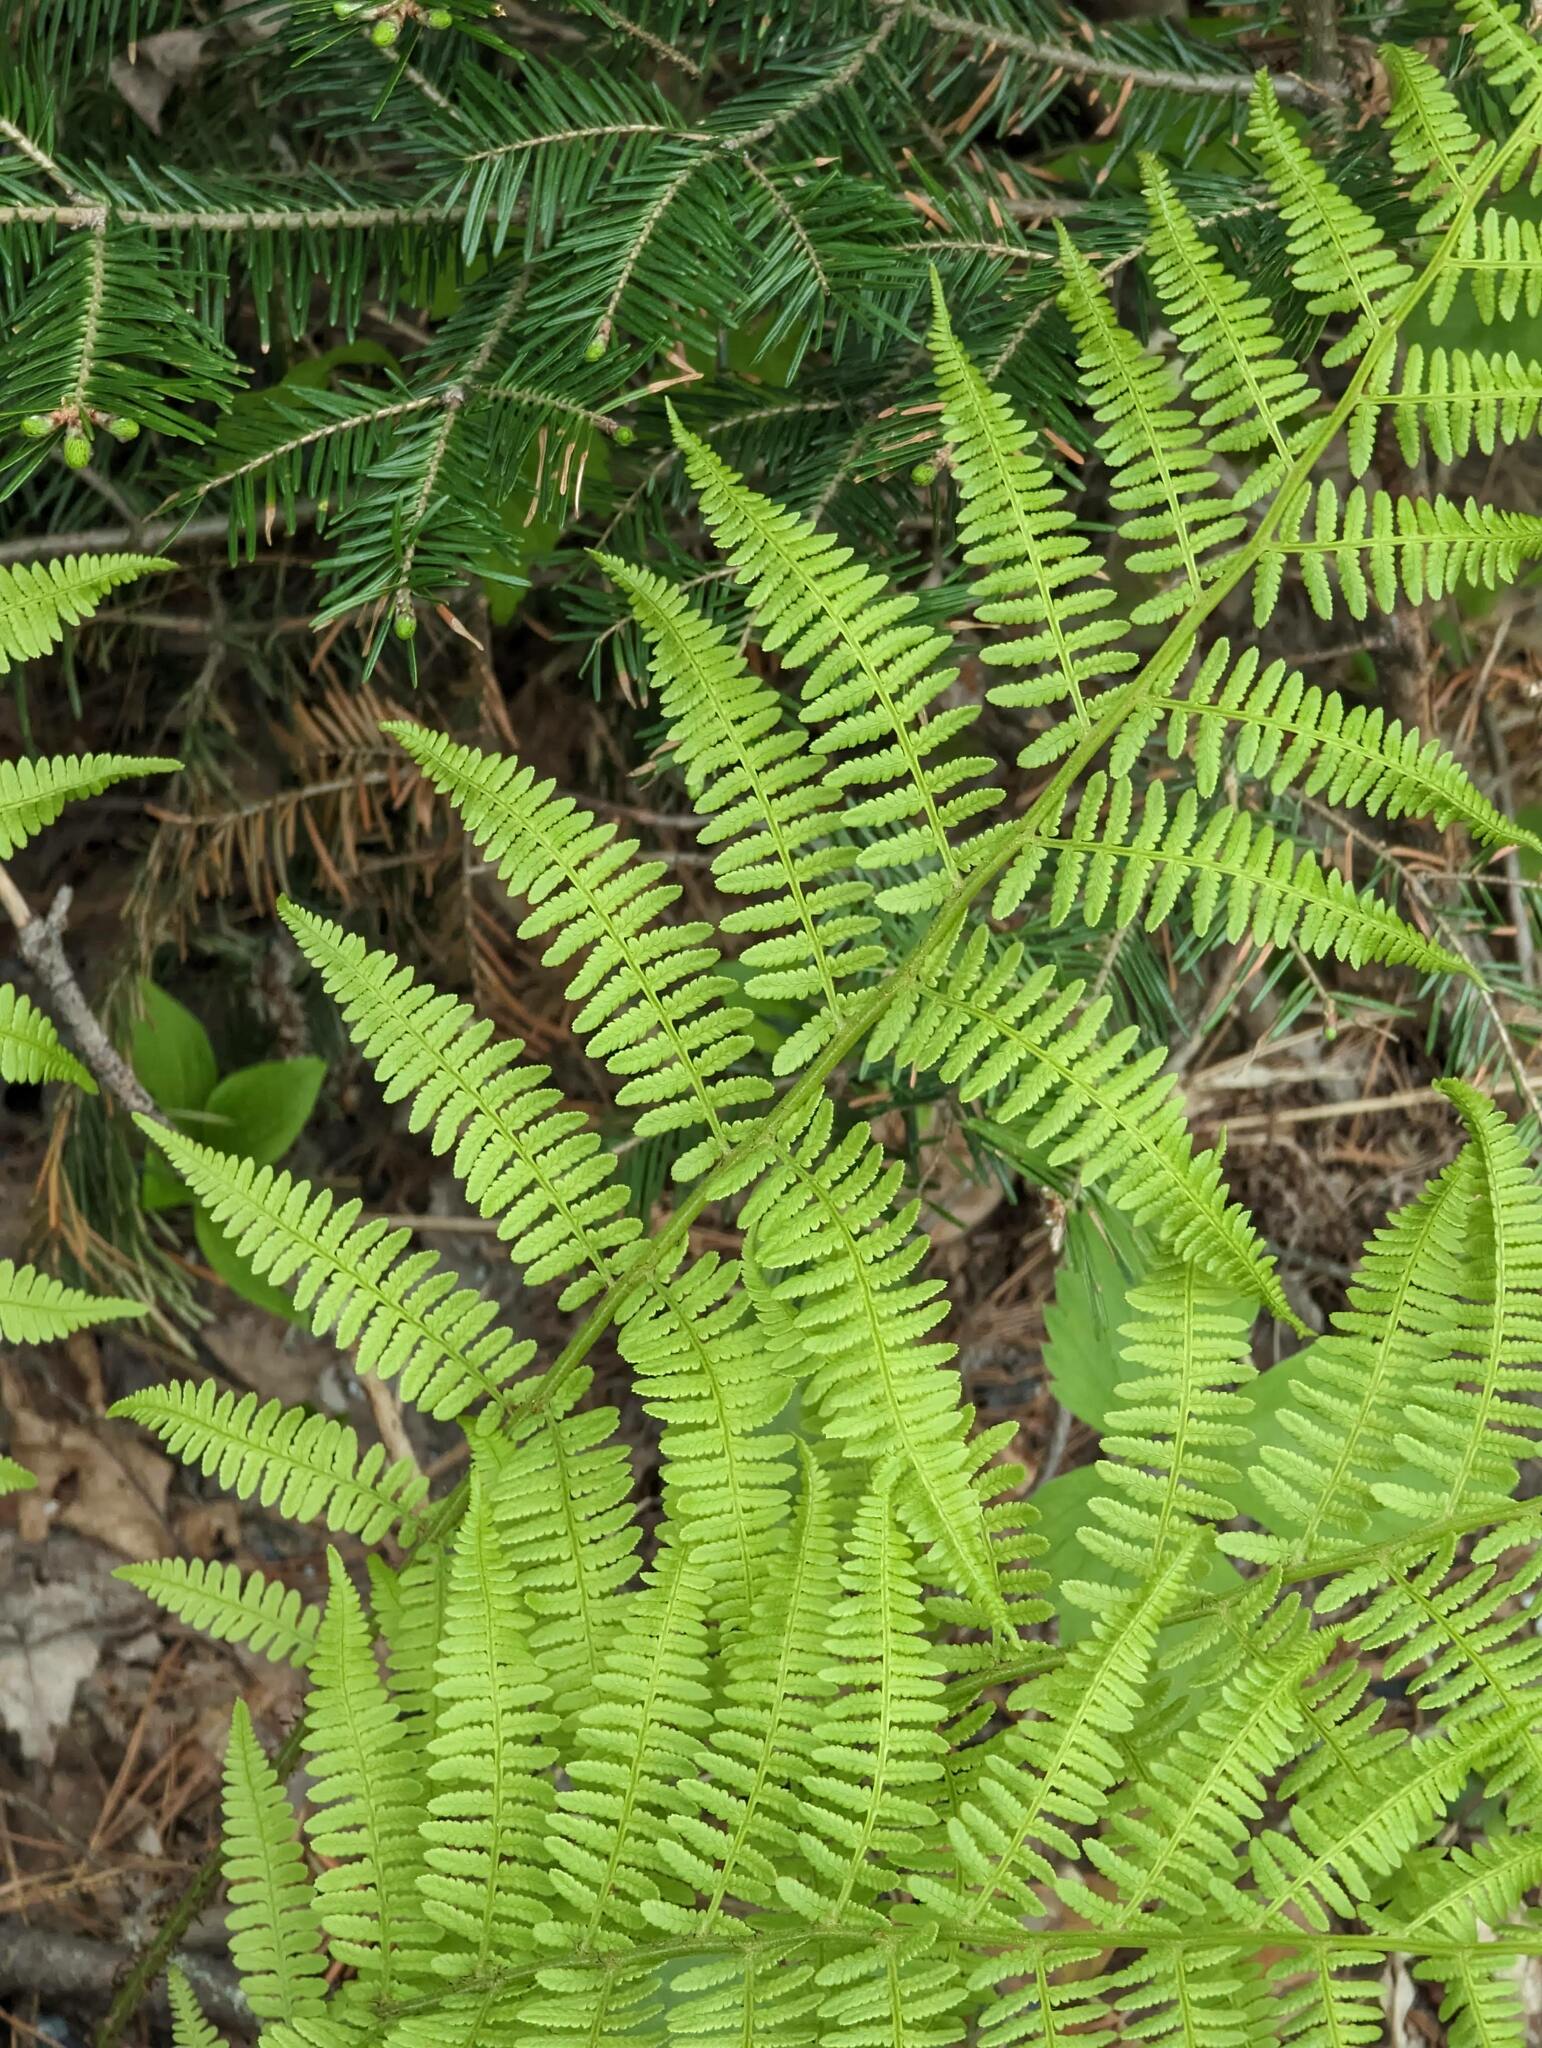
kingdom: Plantae
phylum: Tracheophyta
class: Polypodiopsida
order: Polypodiales
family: Athyriaceae
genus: Athyrium
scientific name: Athyrium angustum
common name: Northern lady fern
